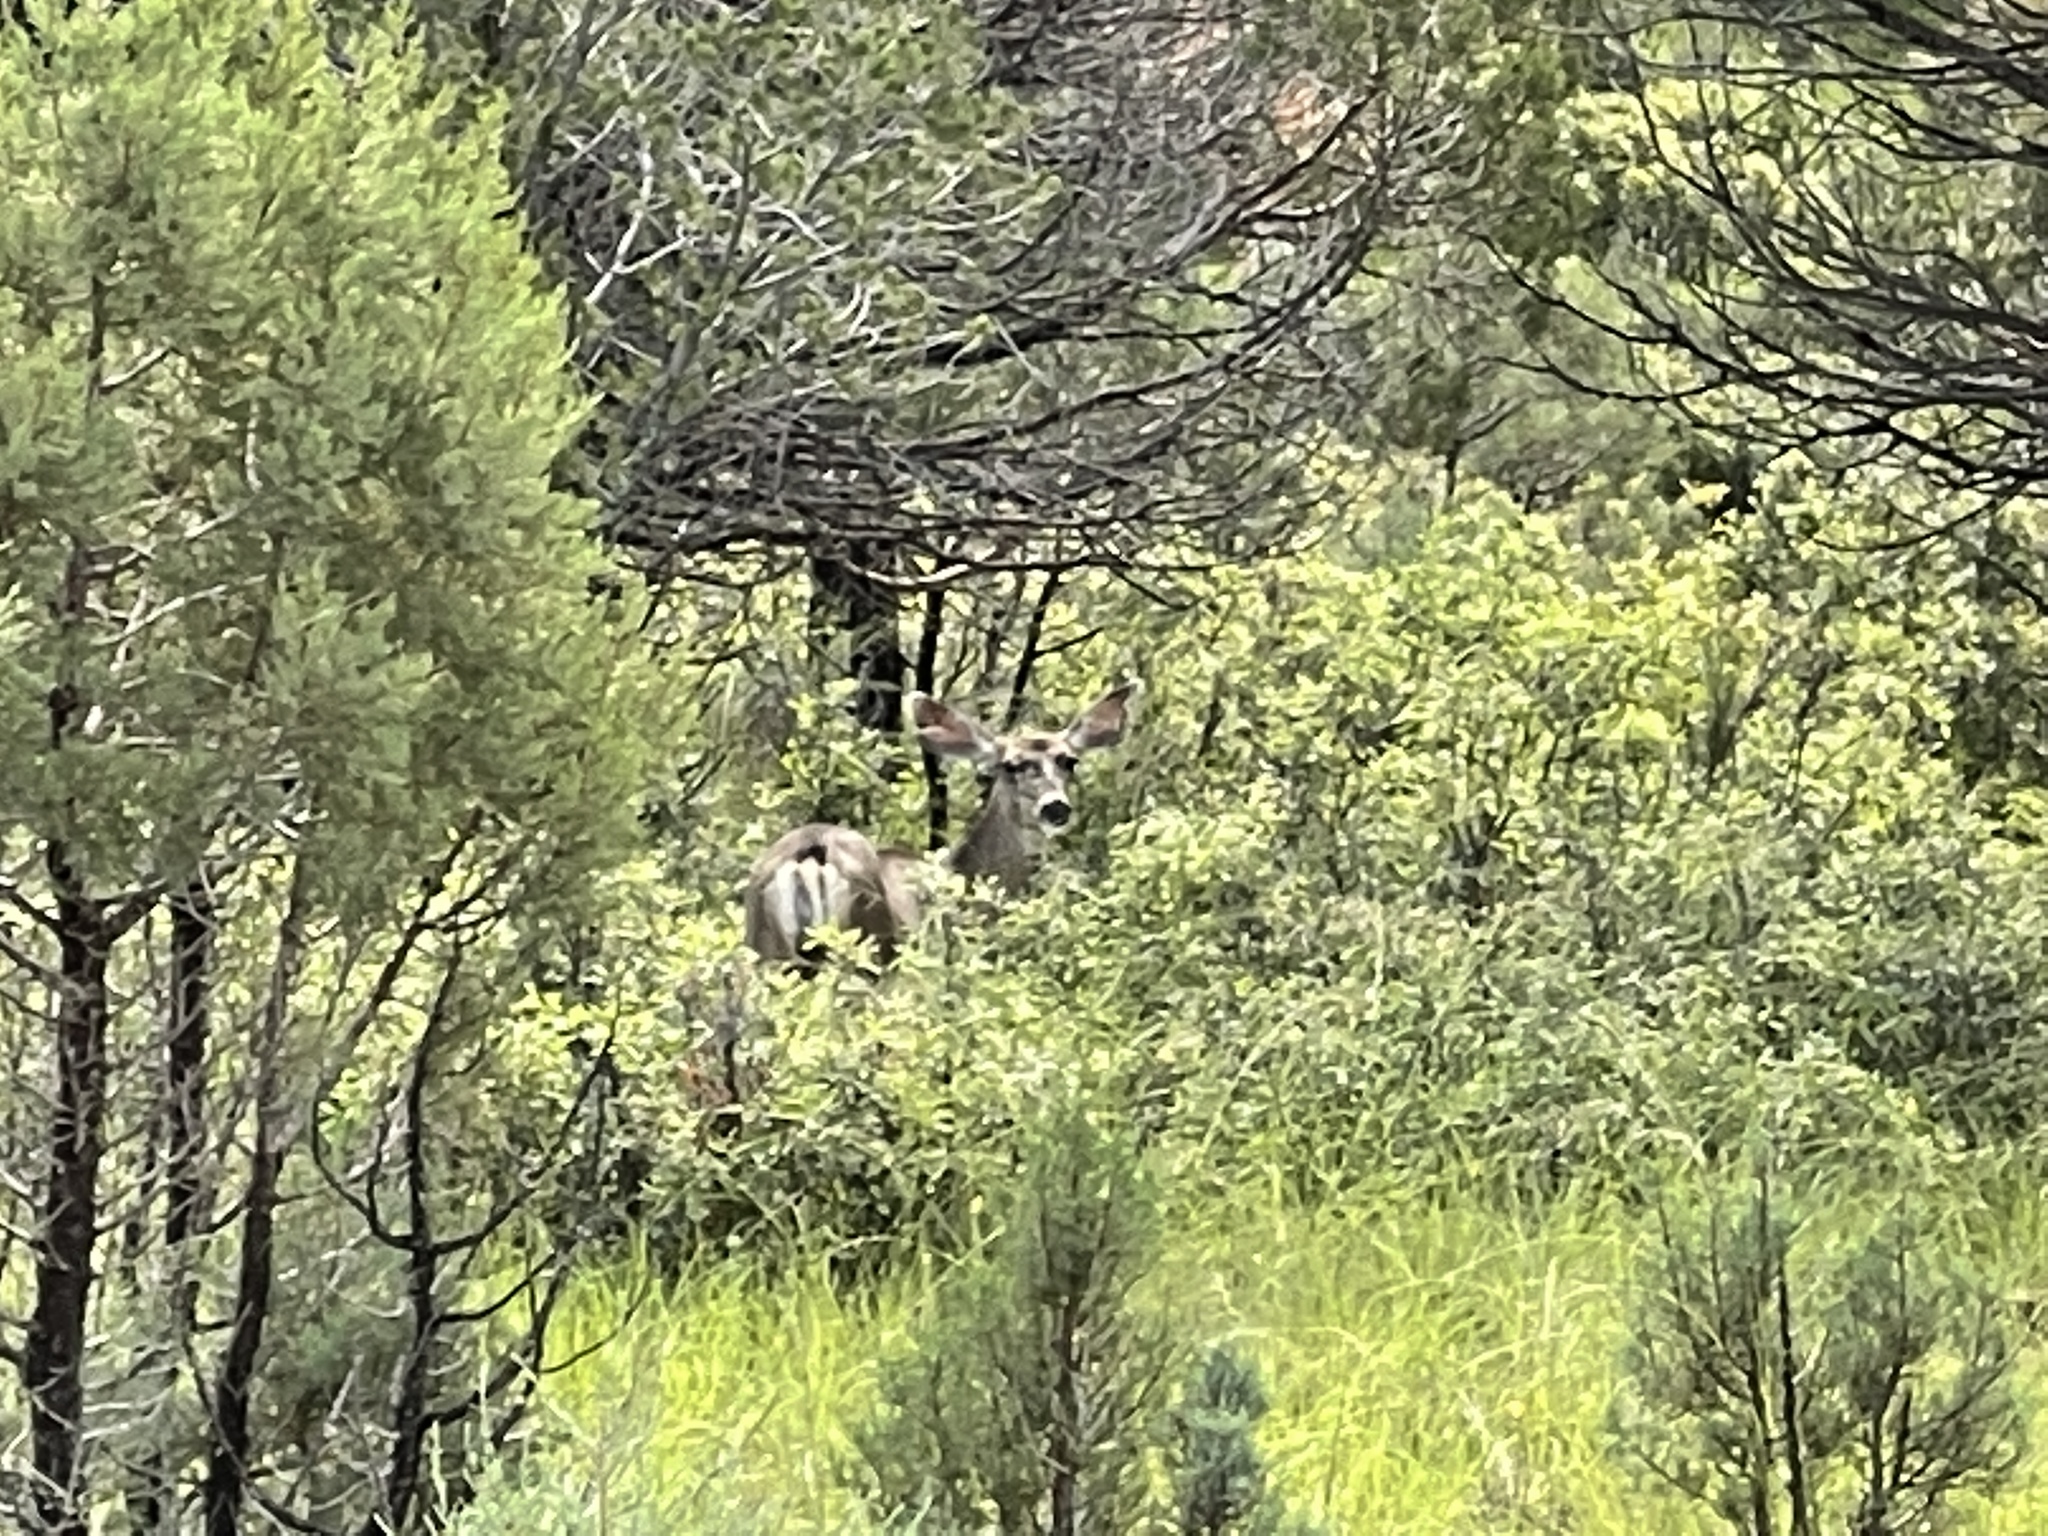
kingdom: Animalia
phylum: Chordata
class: Mammalia
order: Artiodactyla
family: Cervidae
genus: Odocoileus
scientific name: Odocoileus hemionus
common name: Mule deer
